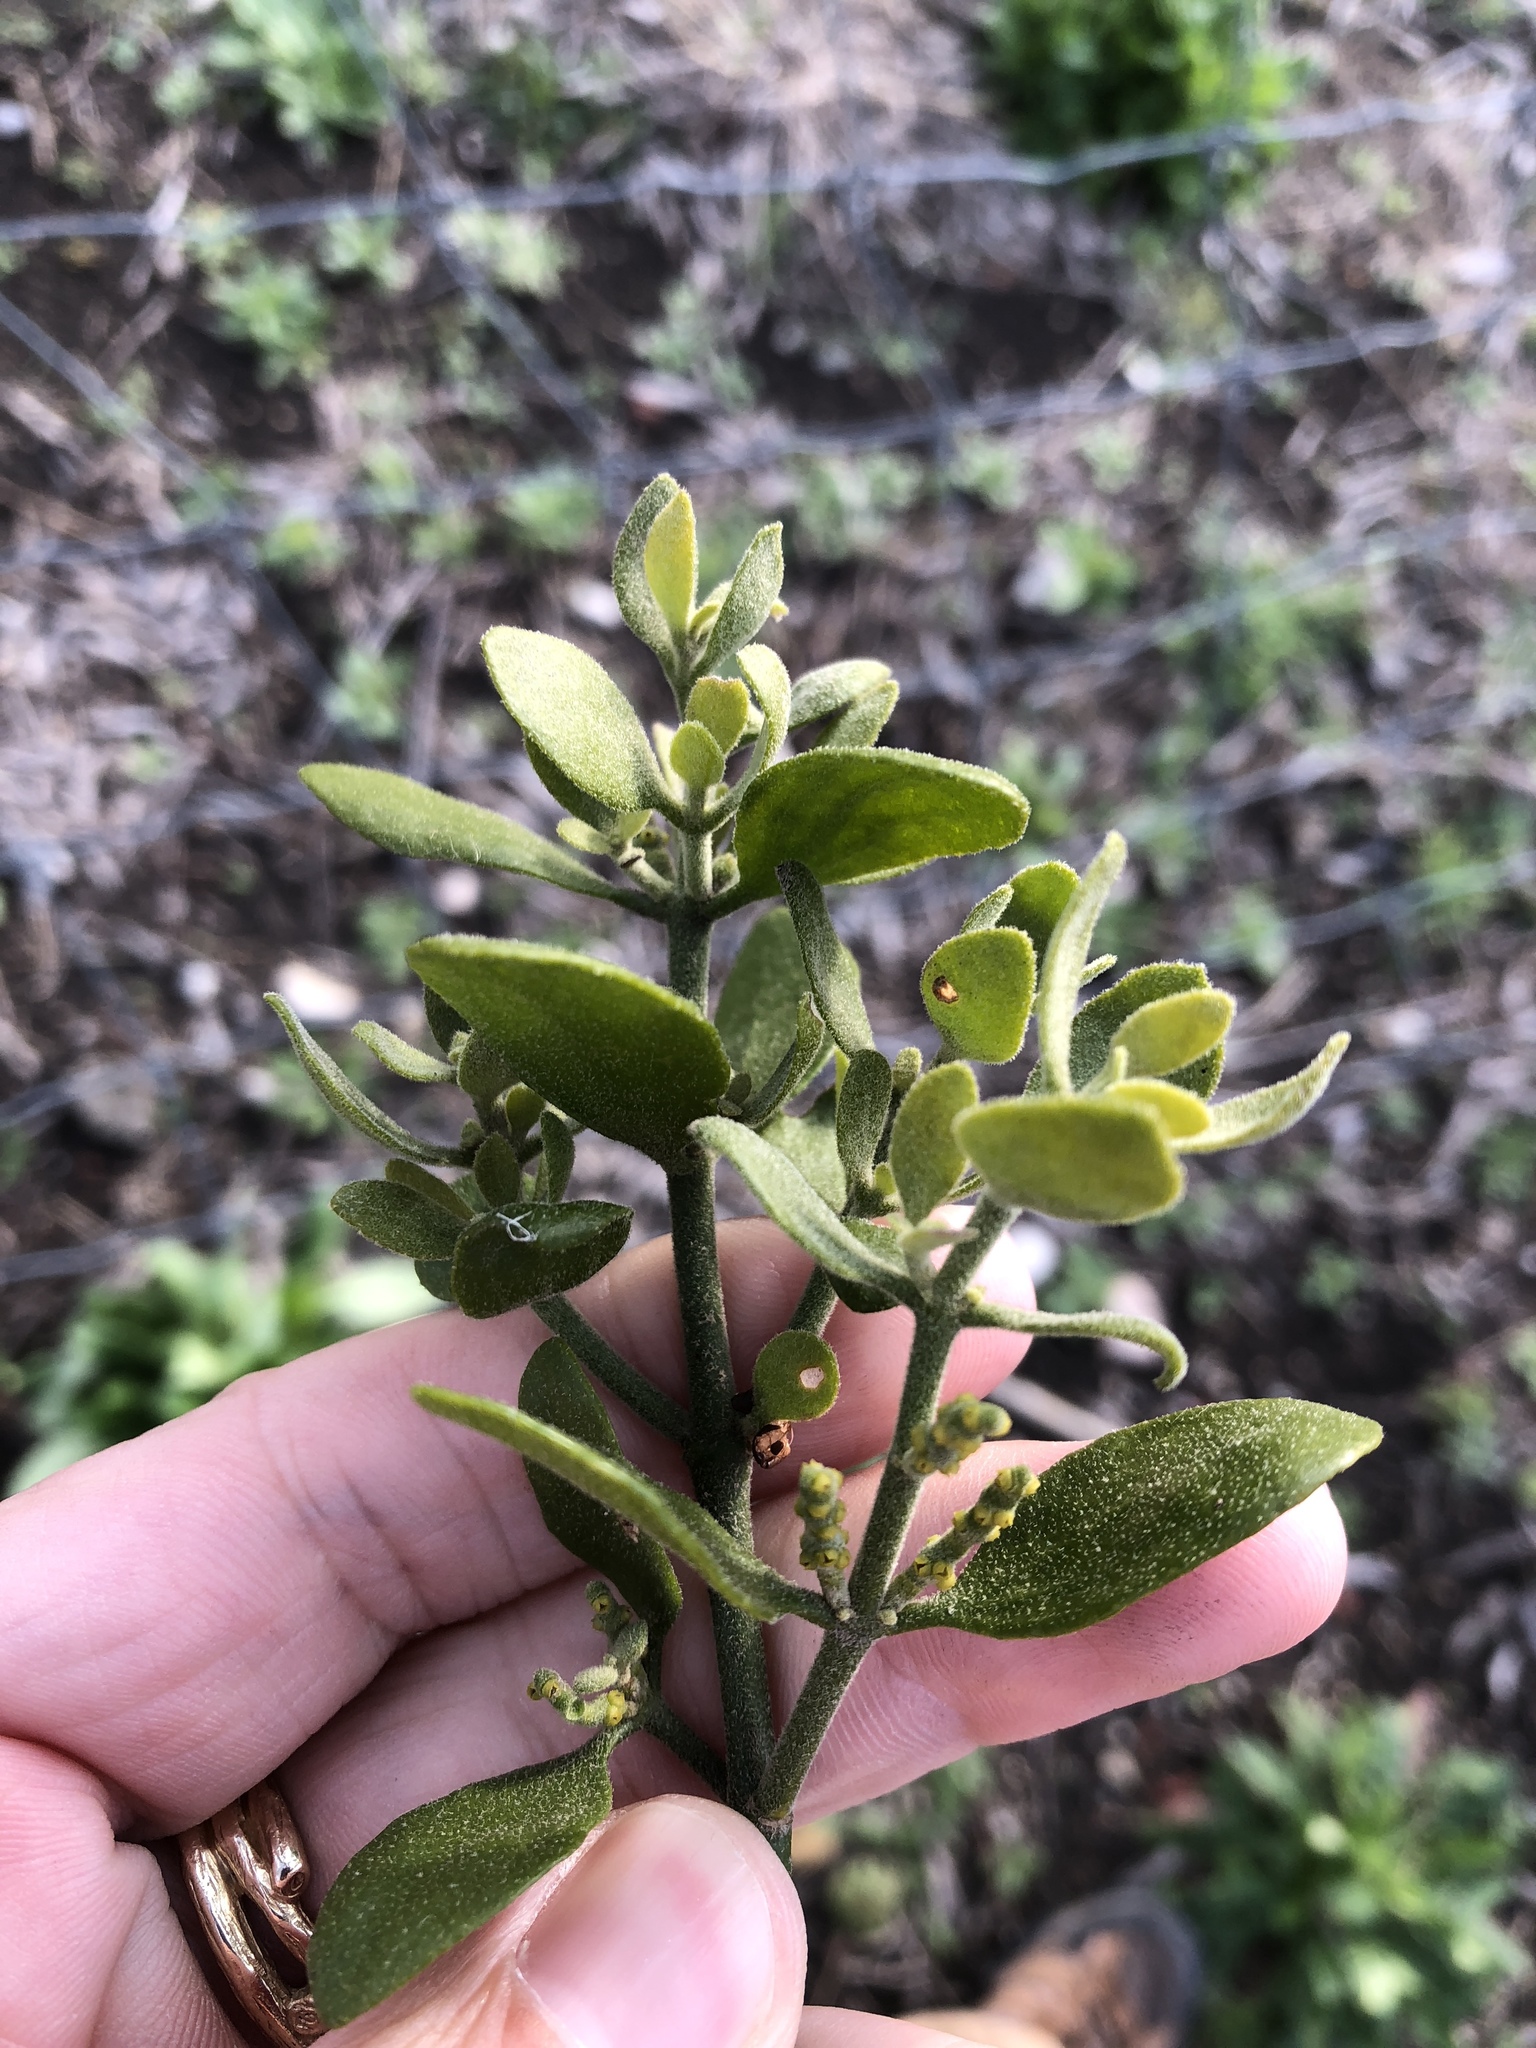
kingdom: Plantae
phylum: Tracheophyta
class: Magnoliopsida
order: Santalales
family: Viscaceae
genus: Phoradendron
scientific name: Phoradendron leucarpum
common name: Pacific mistletoe
